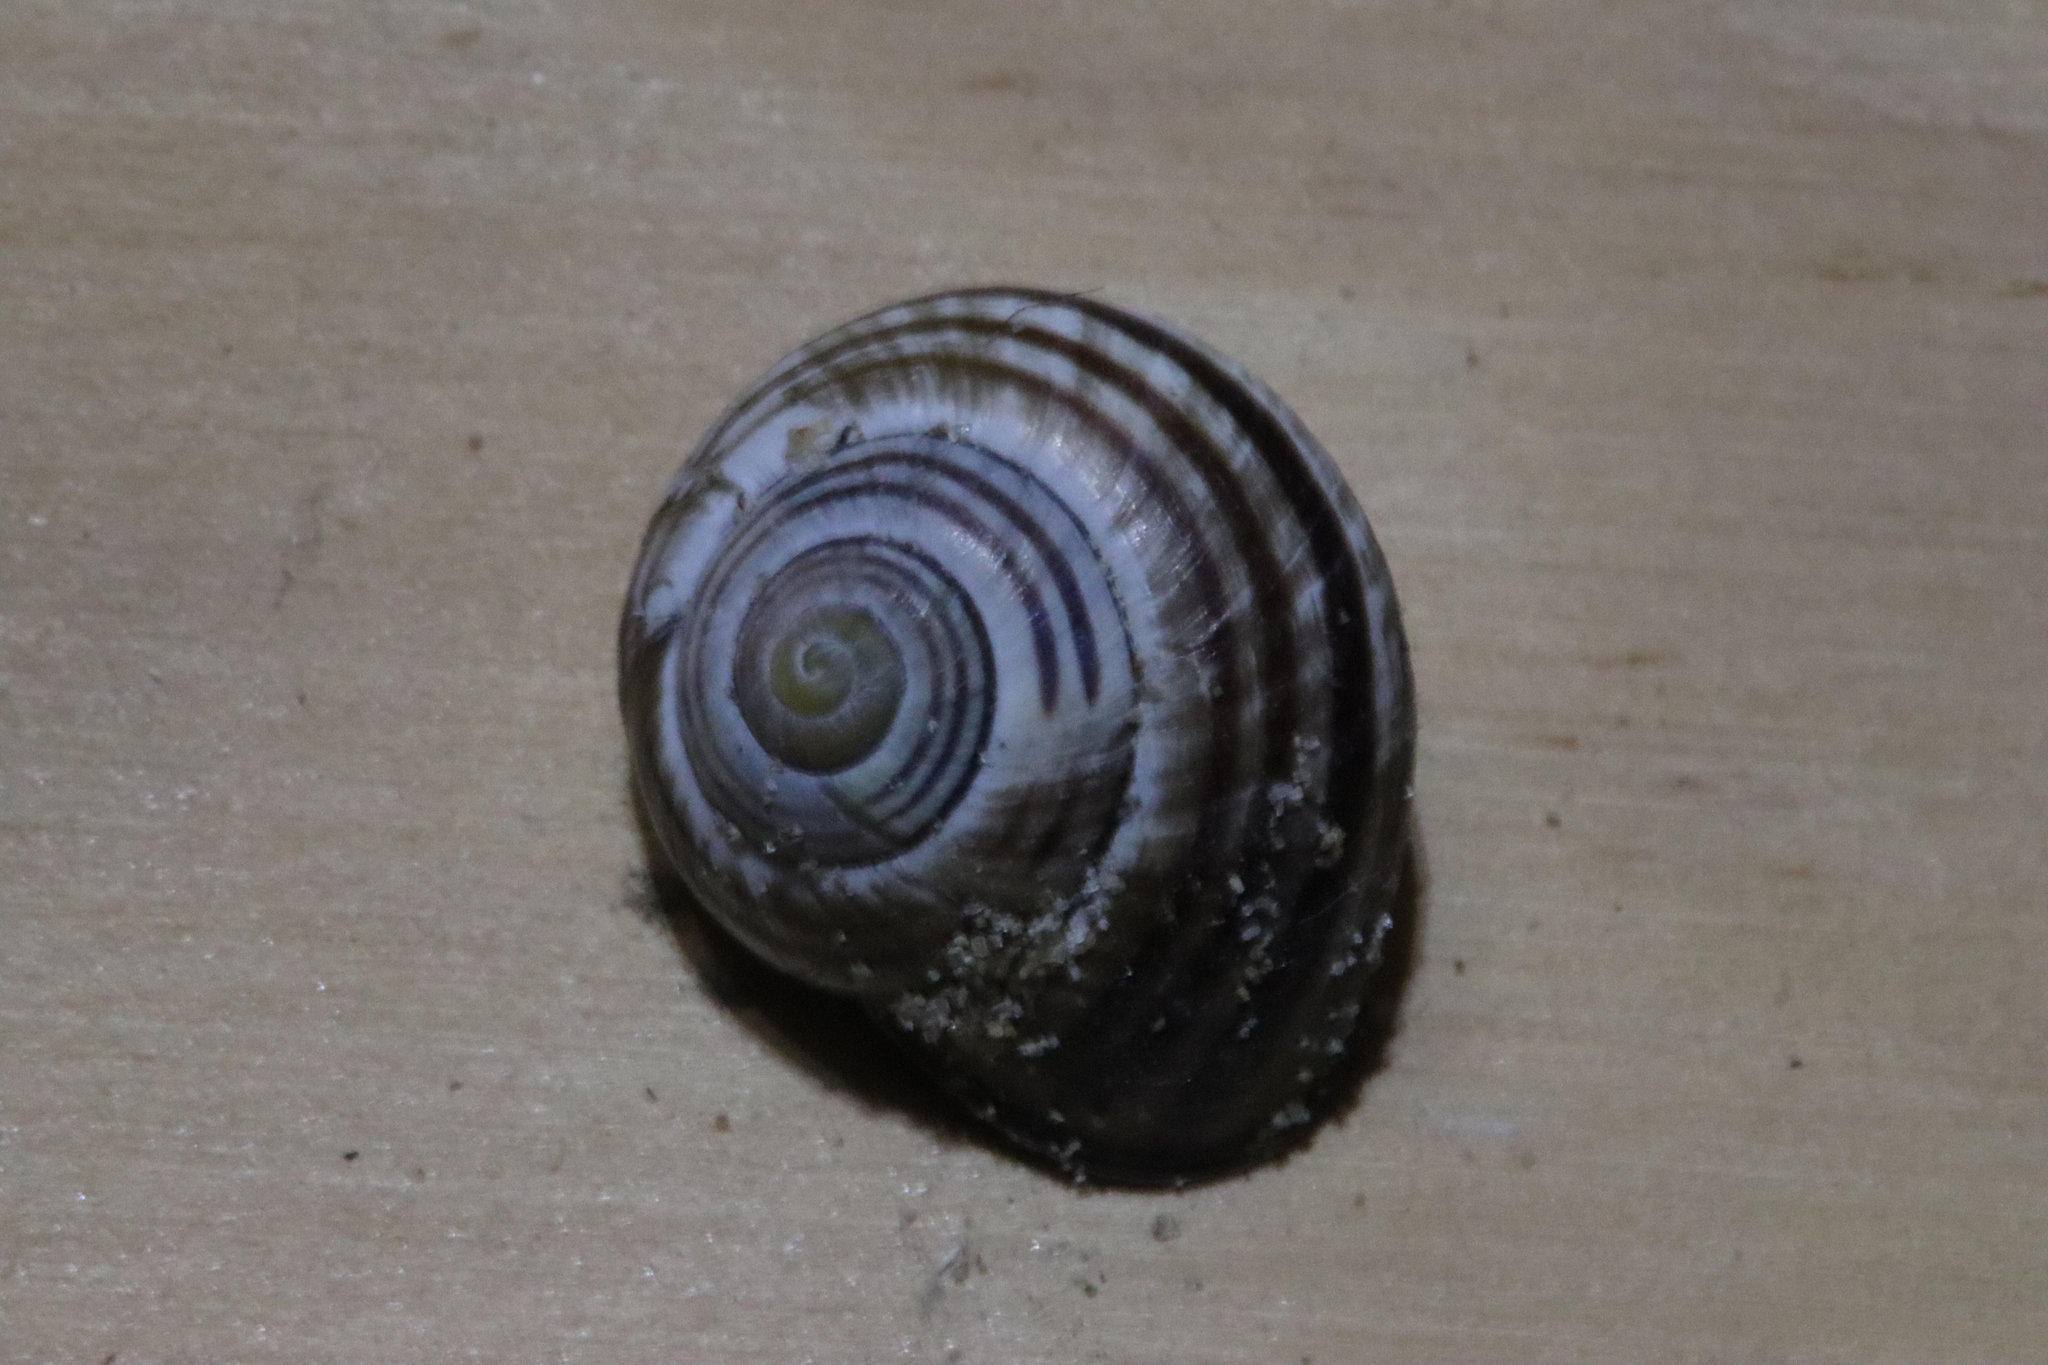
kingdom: Animalia
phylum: Mollusca
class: Gastropoda
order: Stylommatophora
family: Helicidae
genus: Cepaea
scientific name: Cepaea nemoralis
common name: Grovesnail
